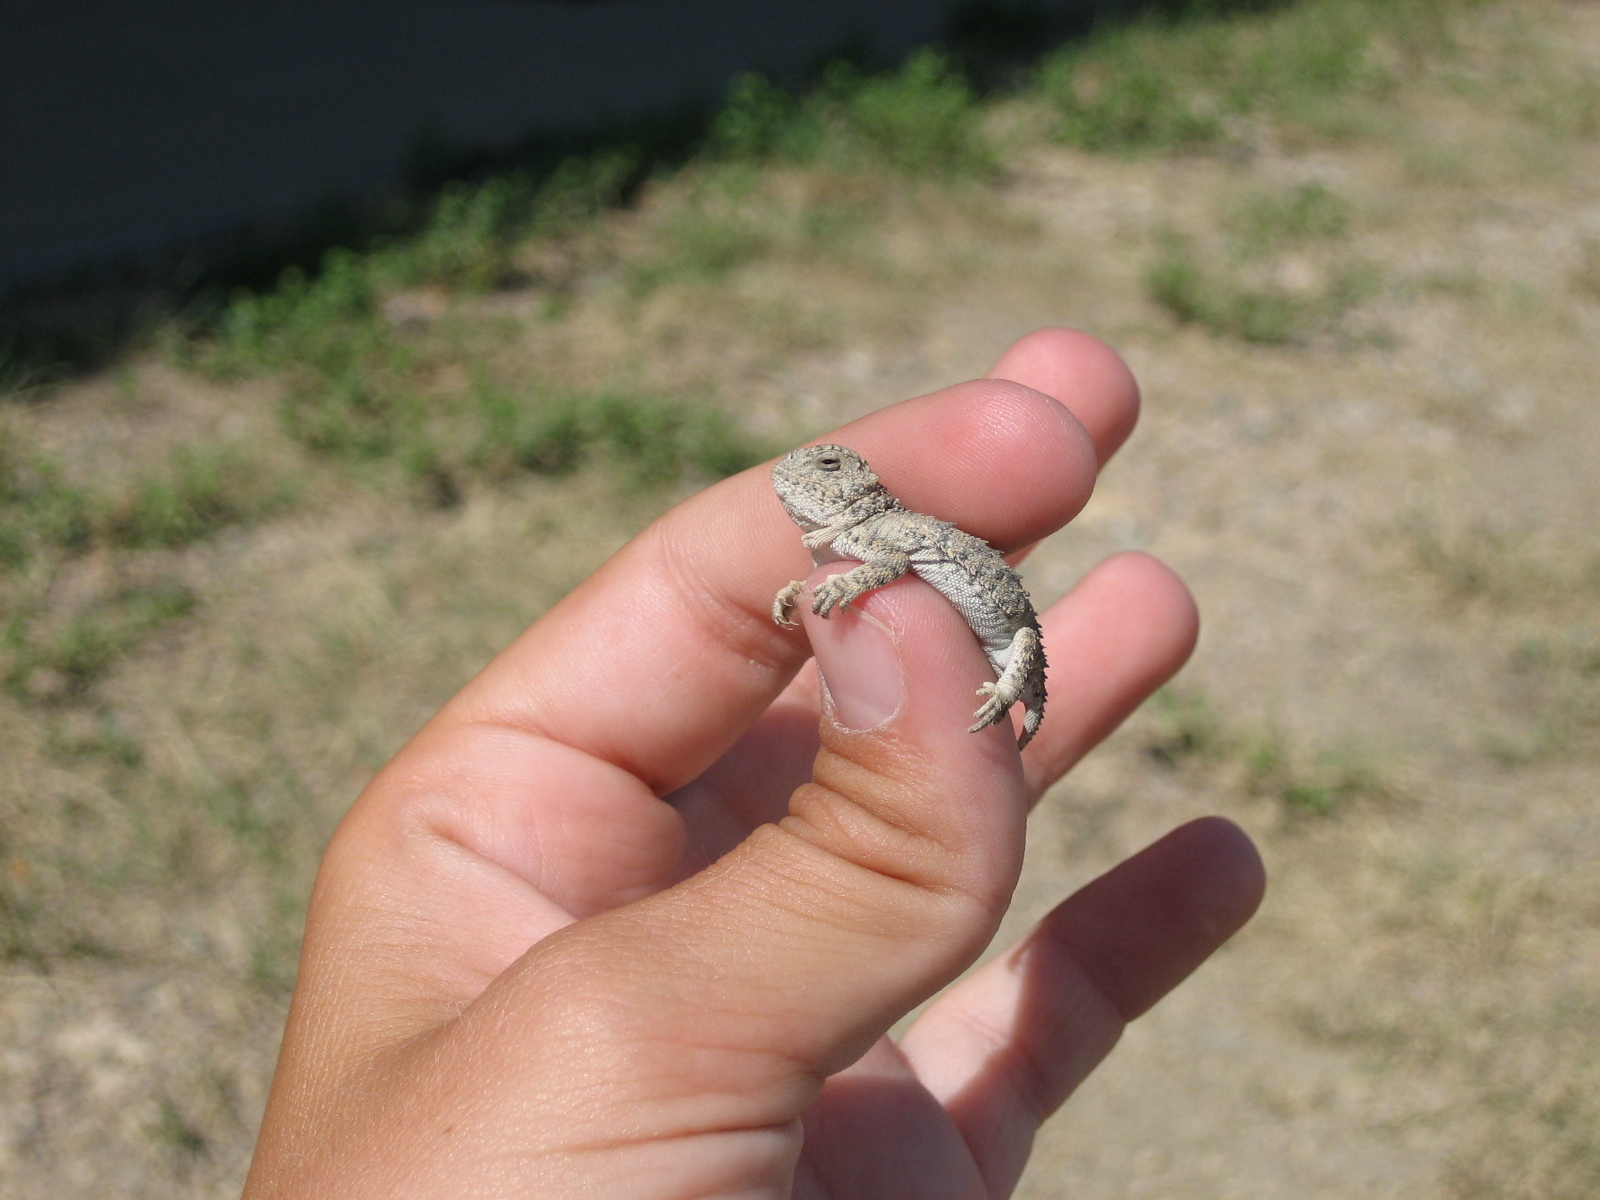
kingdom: Animalia
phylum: Chordata
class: Squamata
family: Phrynosomatidae
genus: Phrynosoma
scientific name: Phrynosoma hernandesi
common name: Greater short-horned lizard
